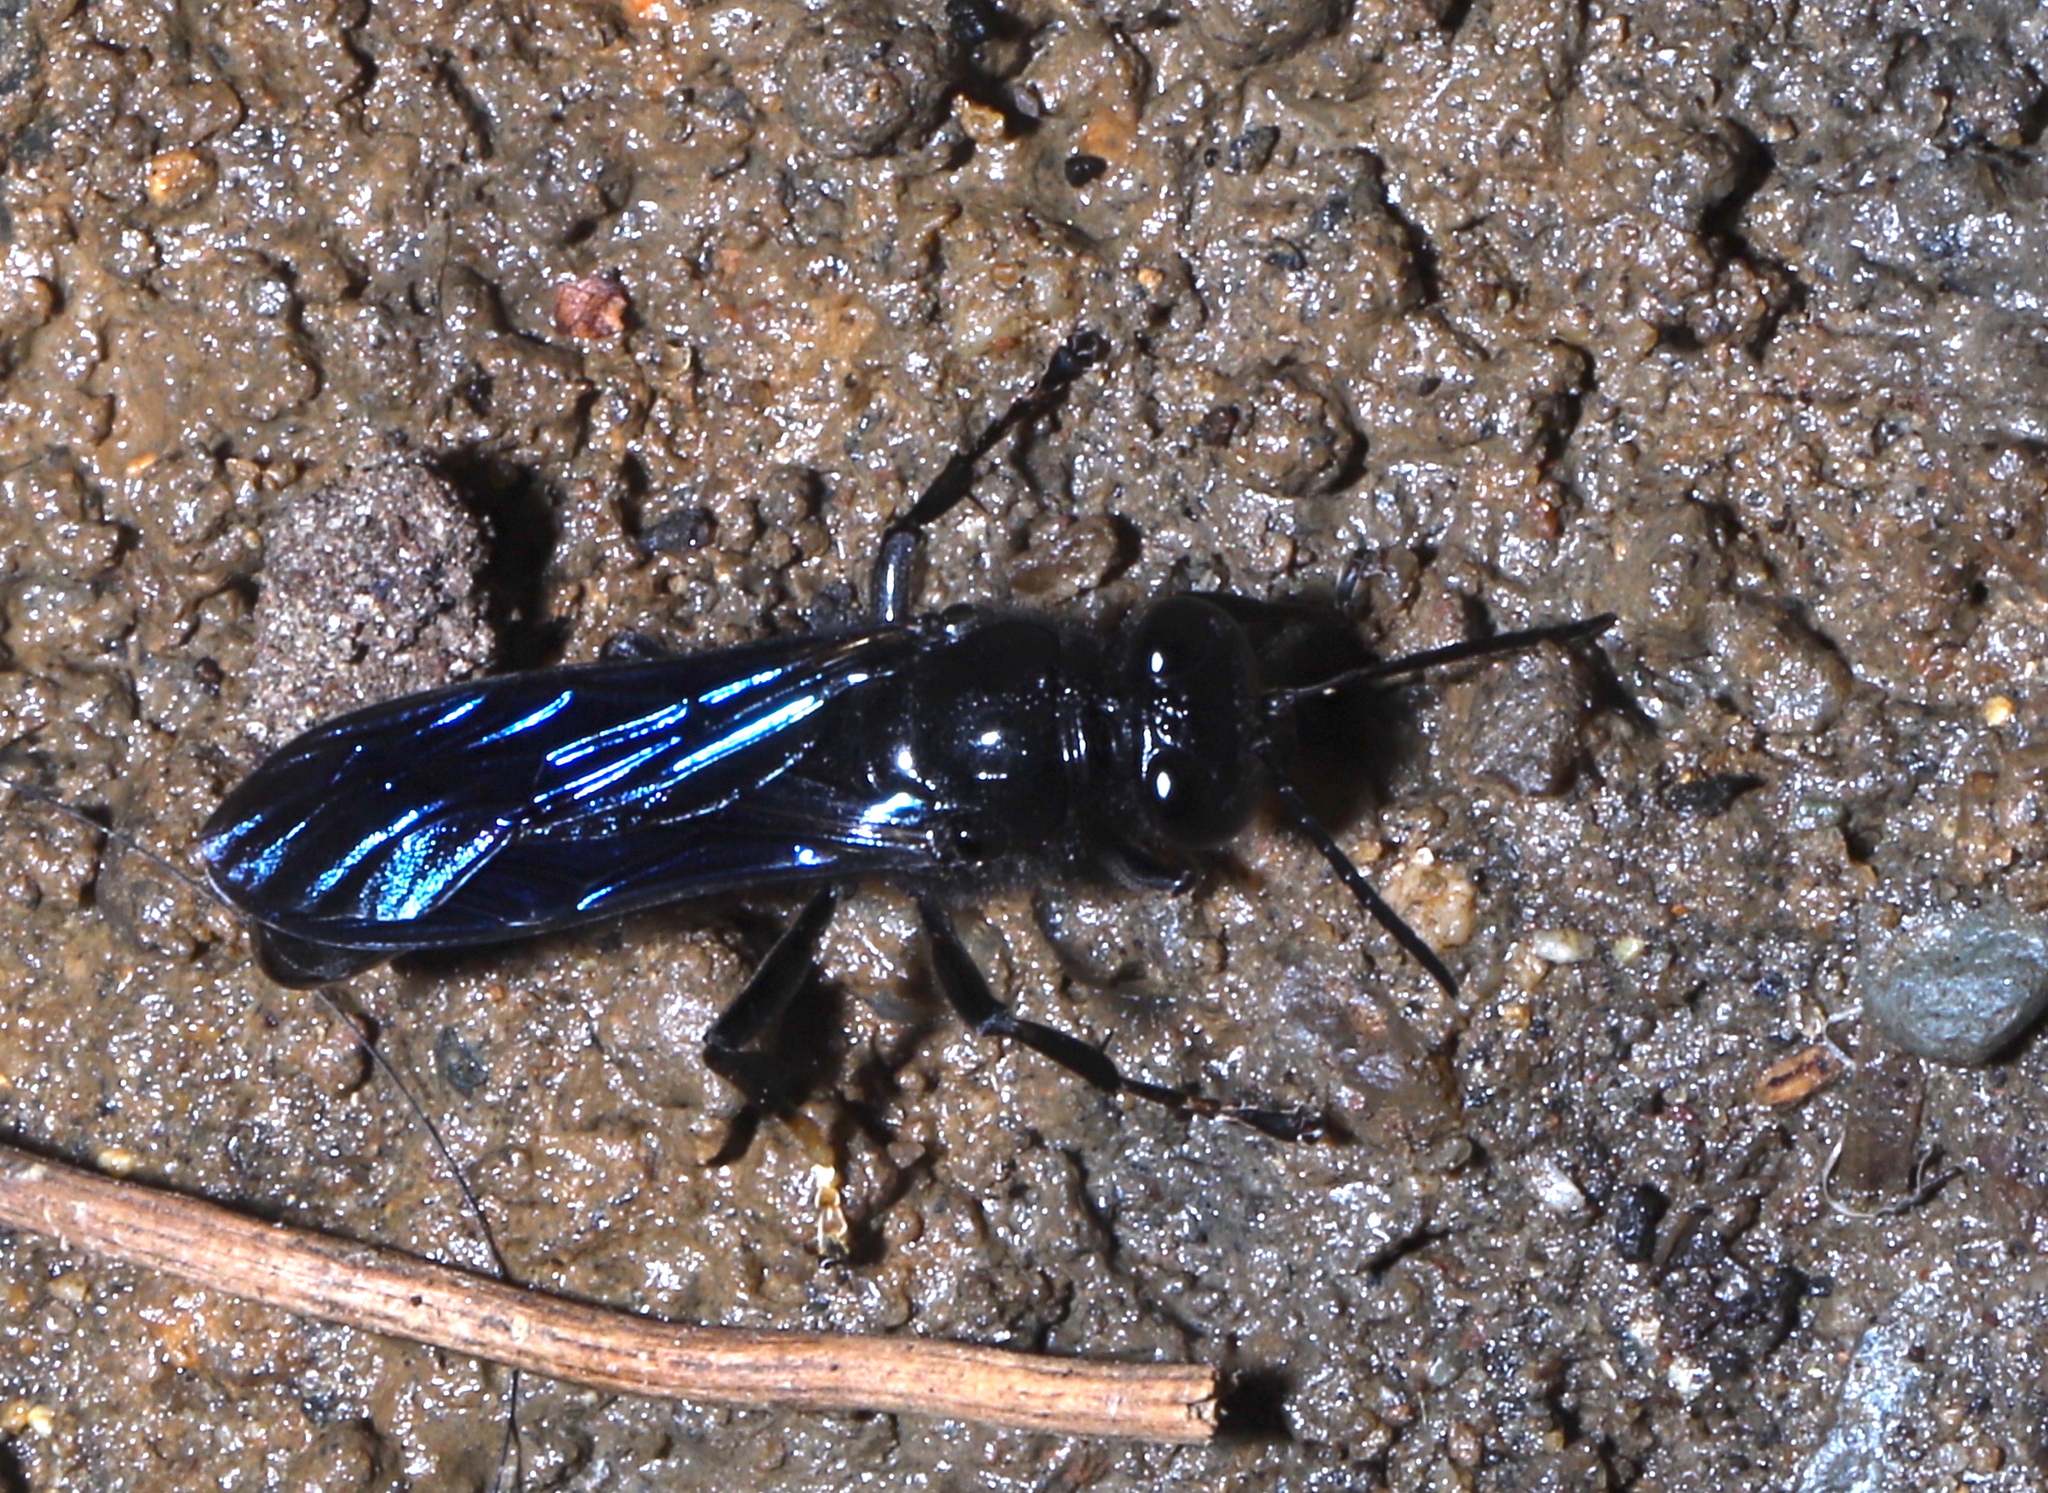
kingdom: Animalia
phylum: Arthropoda
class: Insecta
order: Hymenoptera
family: Crabronidae
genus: Trypoxylon
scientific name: Trypoxylon politum
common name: Organ-pipe mud-dauber wasp
